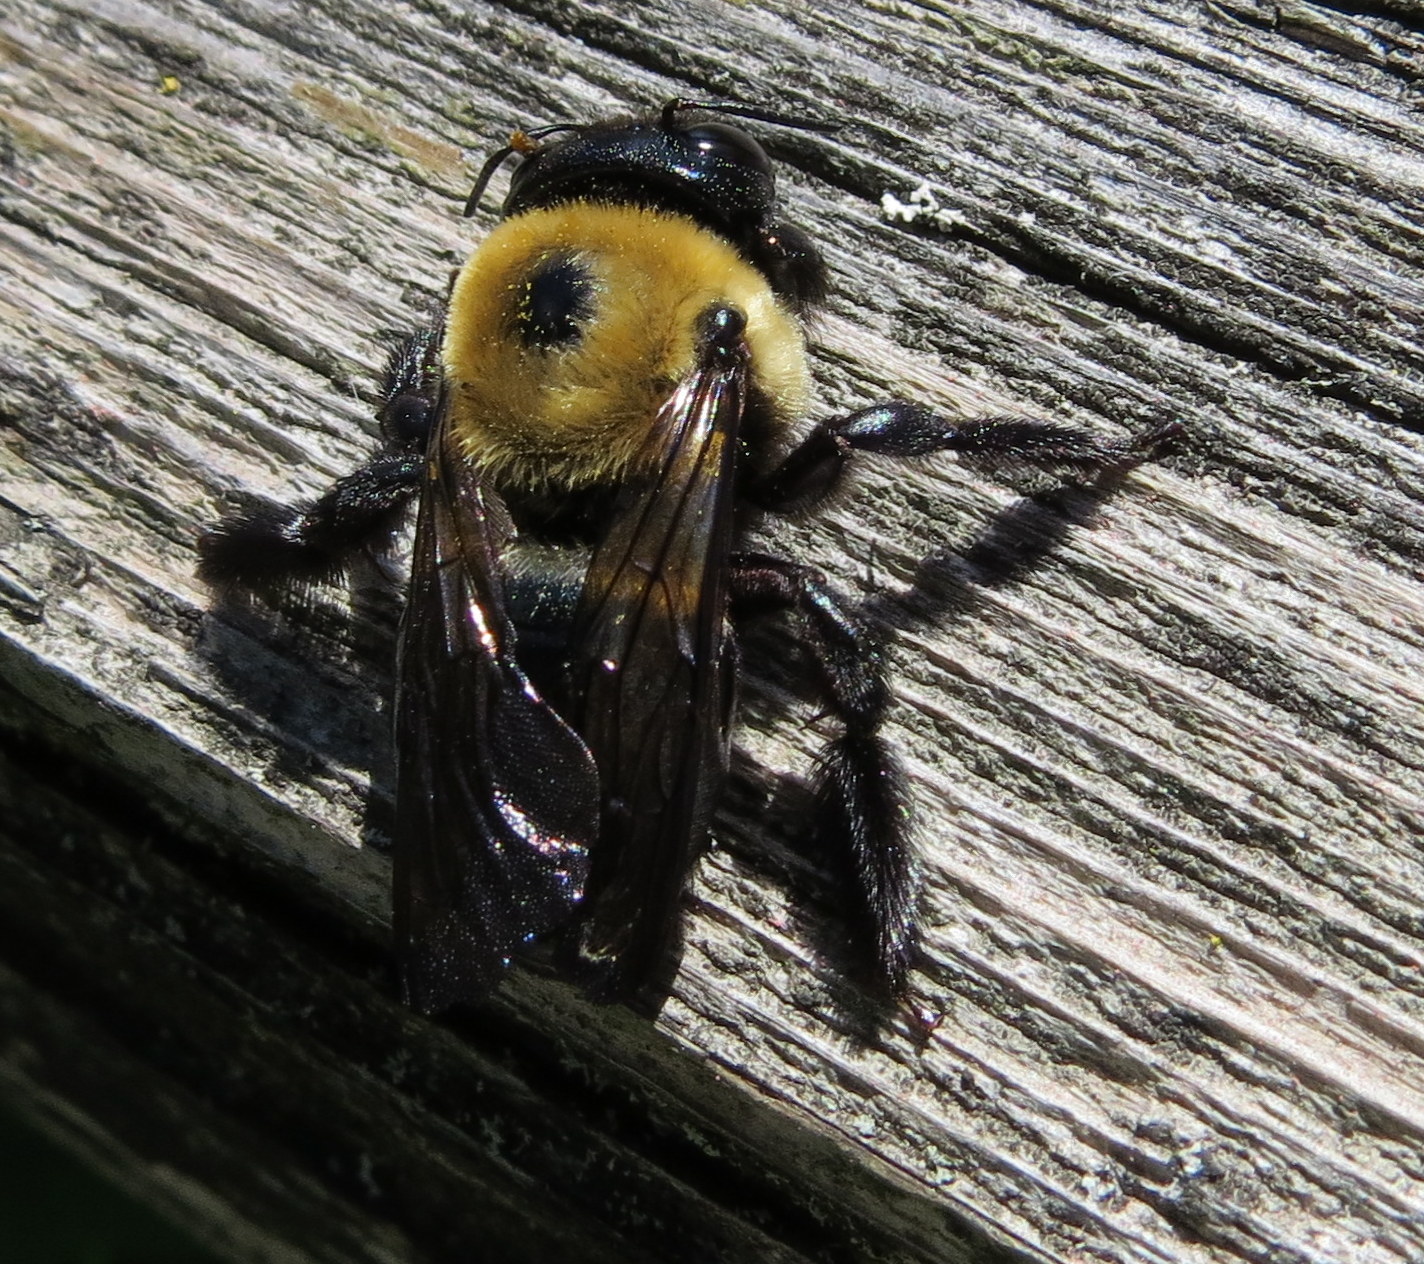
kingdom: Animalia
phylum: Arthropoda
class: Insecta
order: Hymenoptera
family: Apidae
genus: Xylocopa
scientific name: Xylocopa virginica
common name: Carpenter bee
